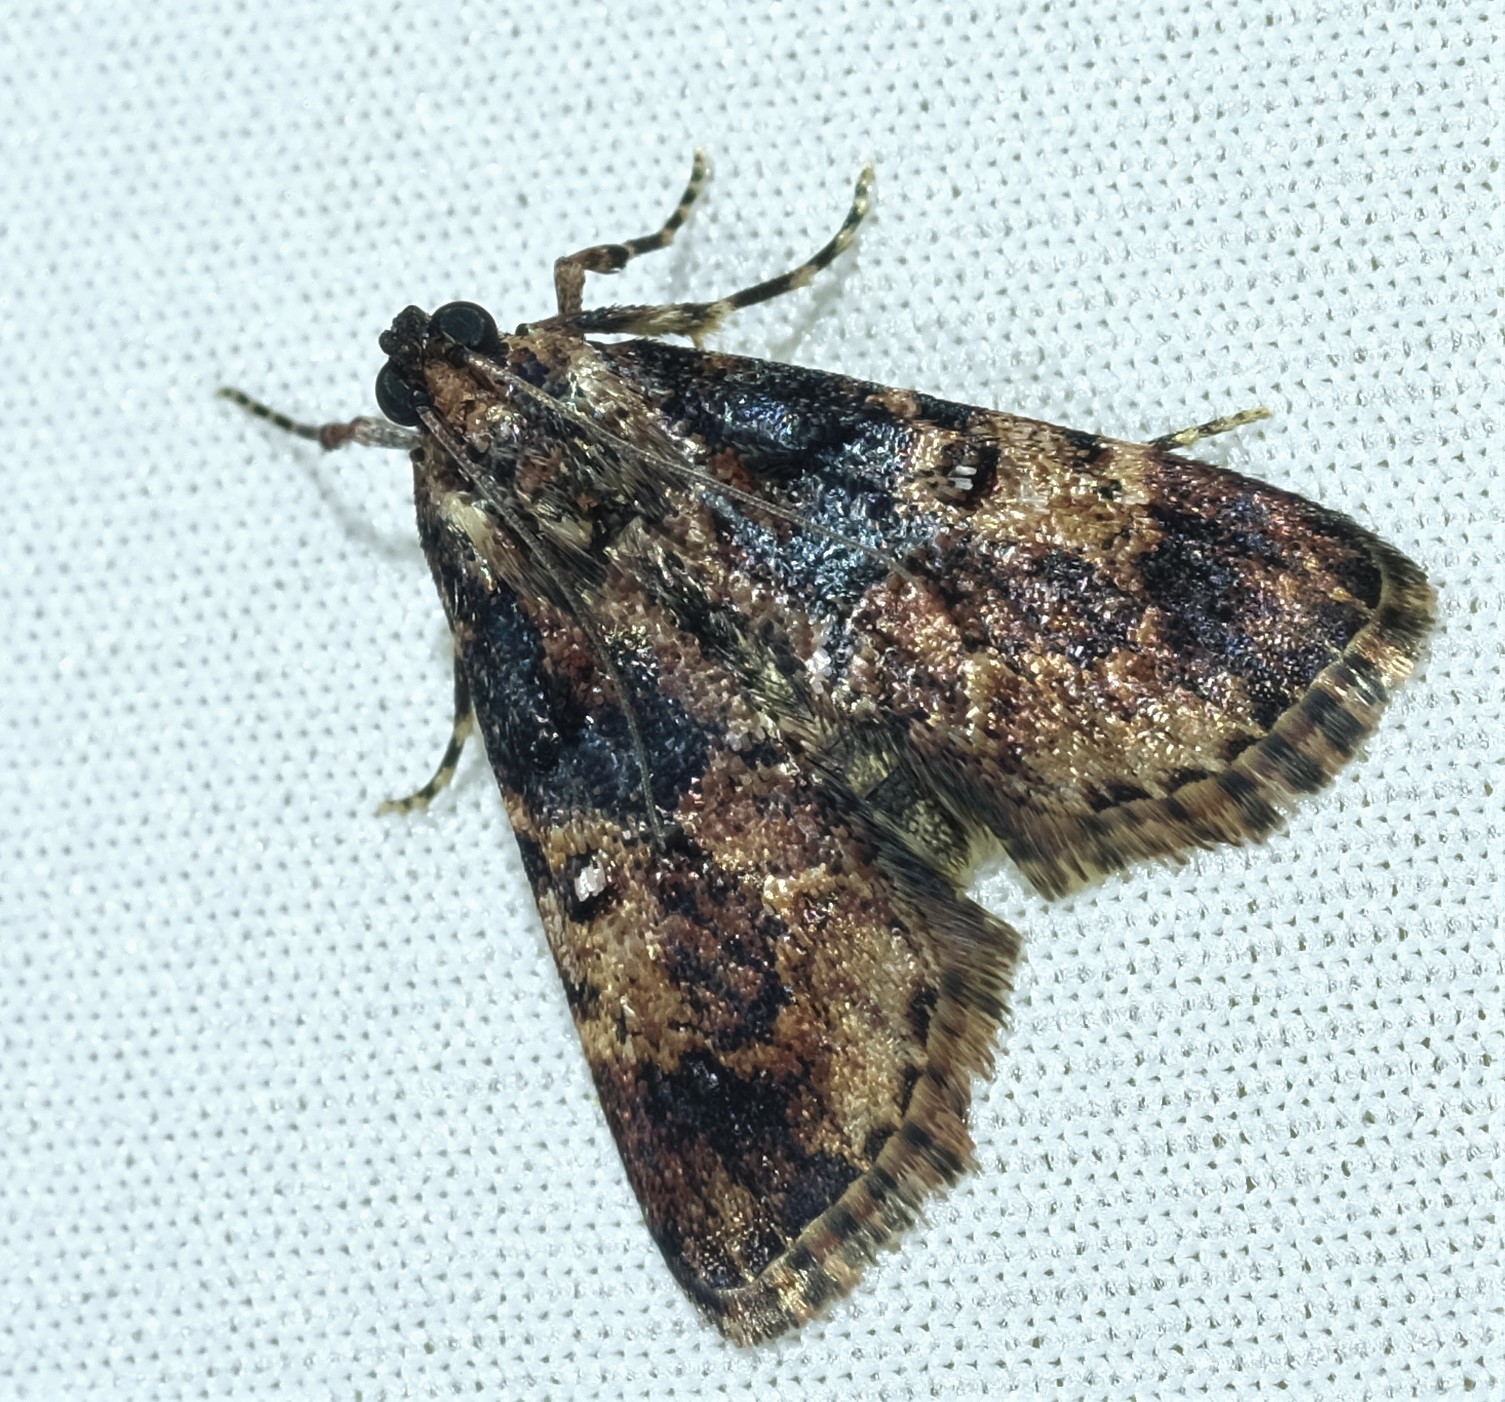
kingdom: Animalia
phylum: Arthropoda
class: Insecta
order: Lepidoptera
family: Pyralidae
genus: Orthaga
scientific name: Orthaga thyrisalis
